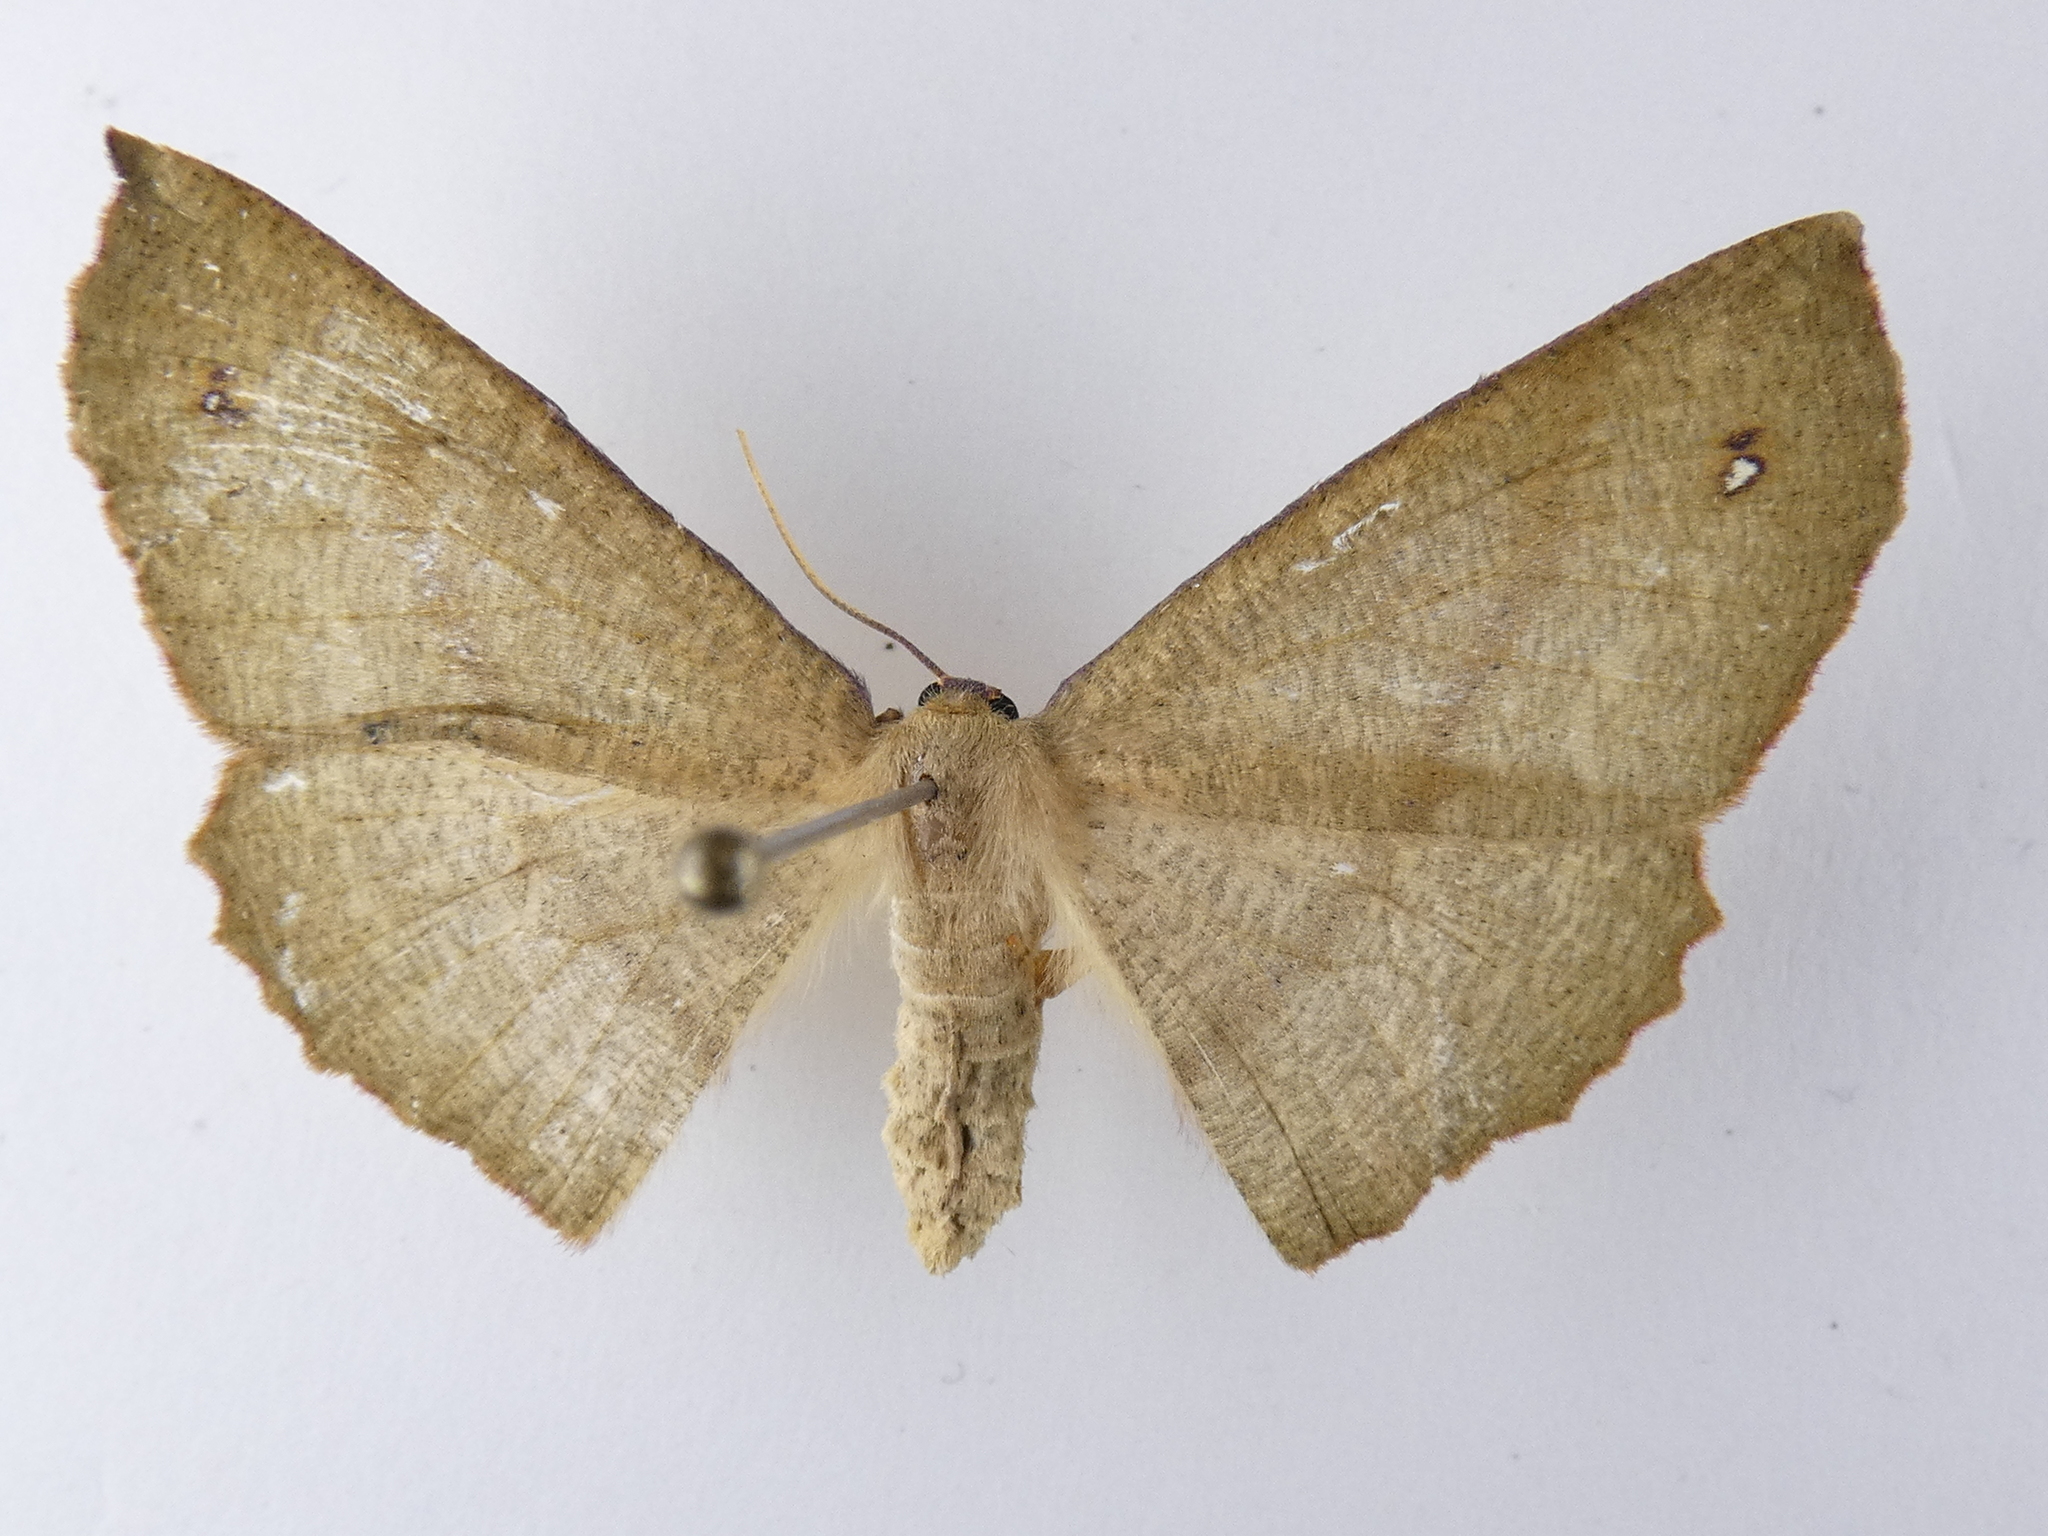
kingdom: Animalia
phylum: Arthropoda
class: Insecta
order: Lepidoptera
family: Geometridae
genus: Xyridacma
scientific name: Xyridacma alectoraria
